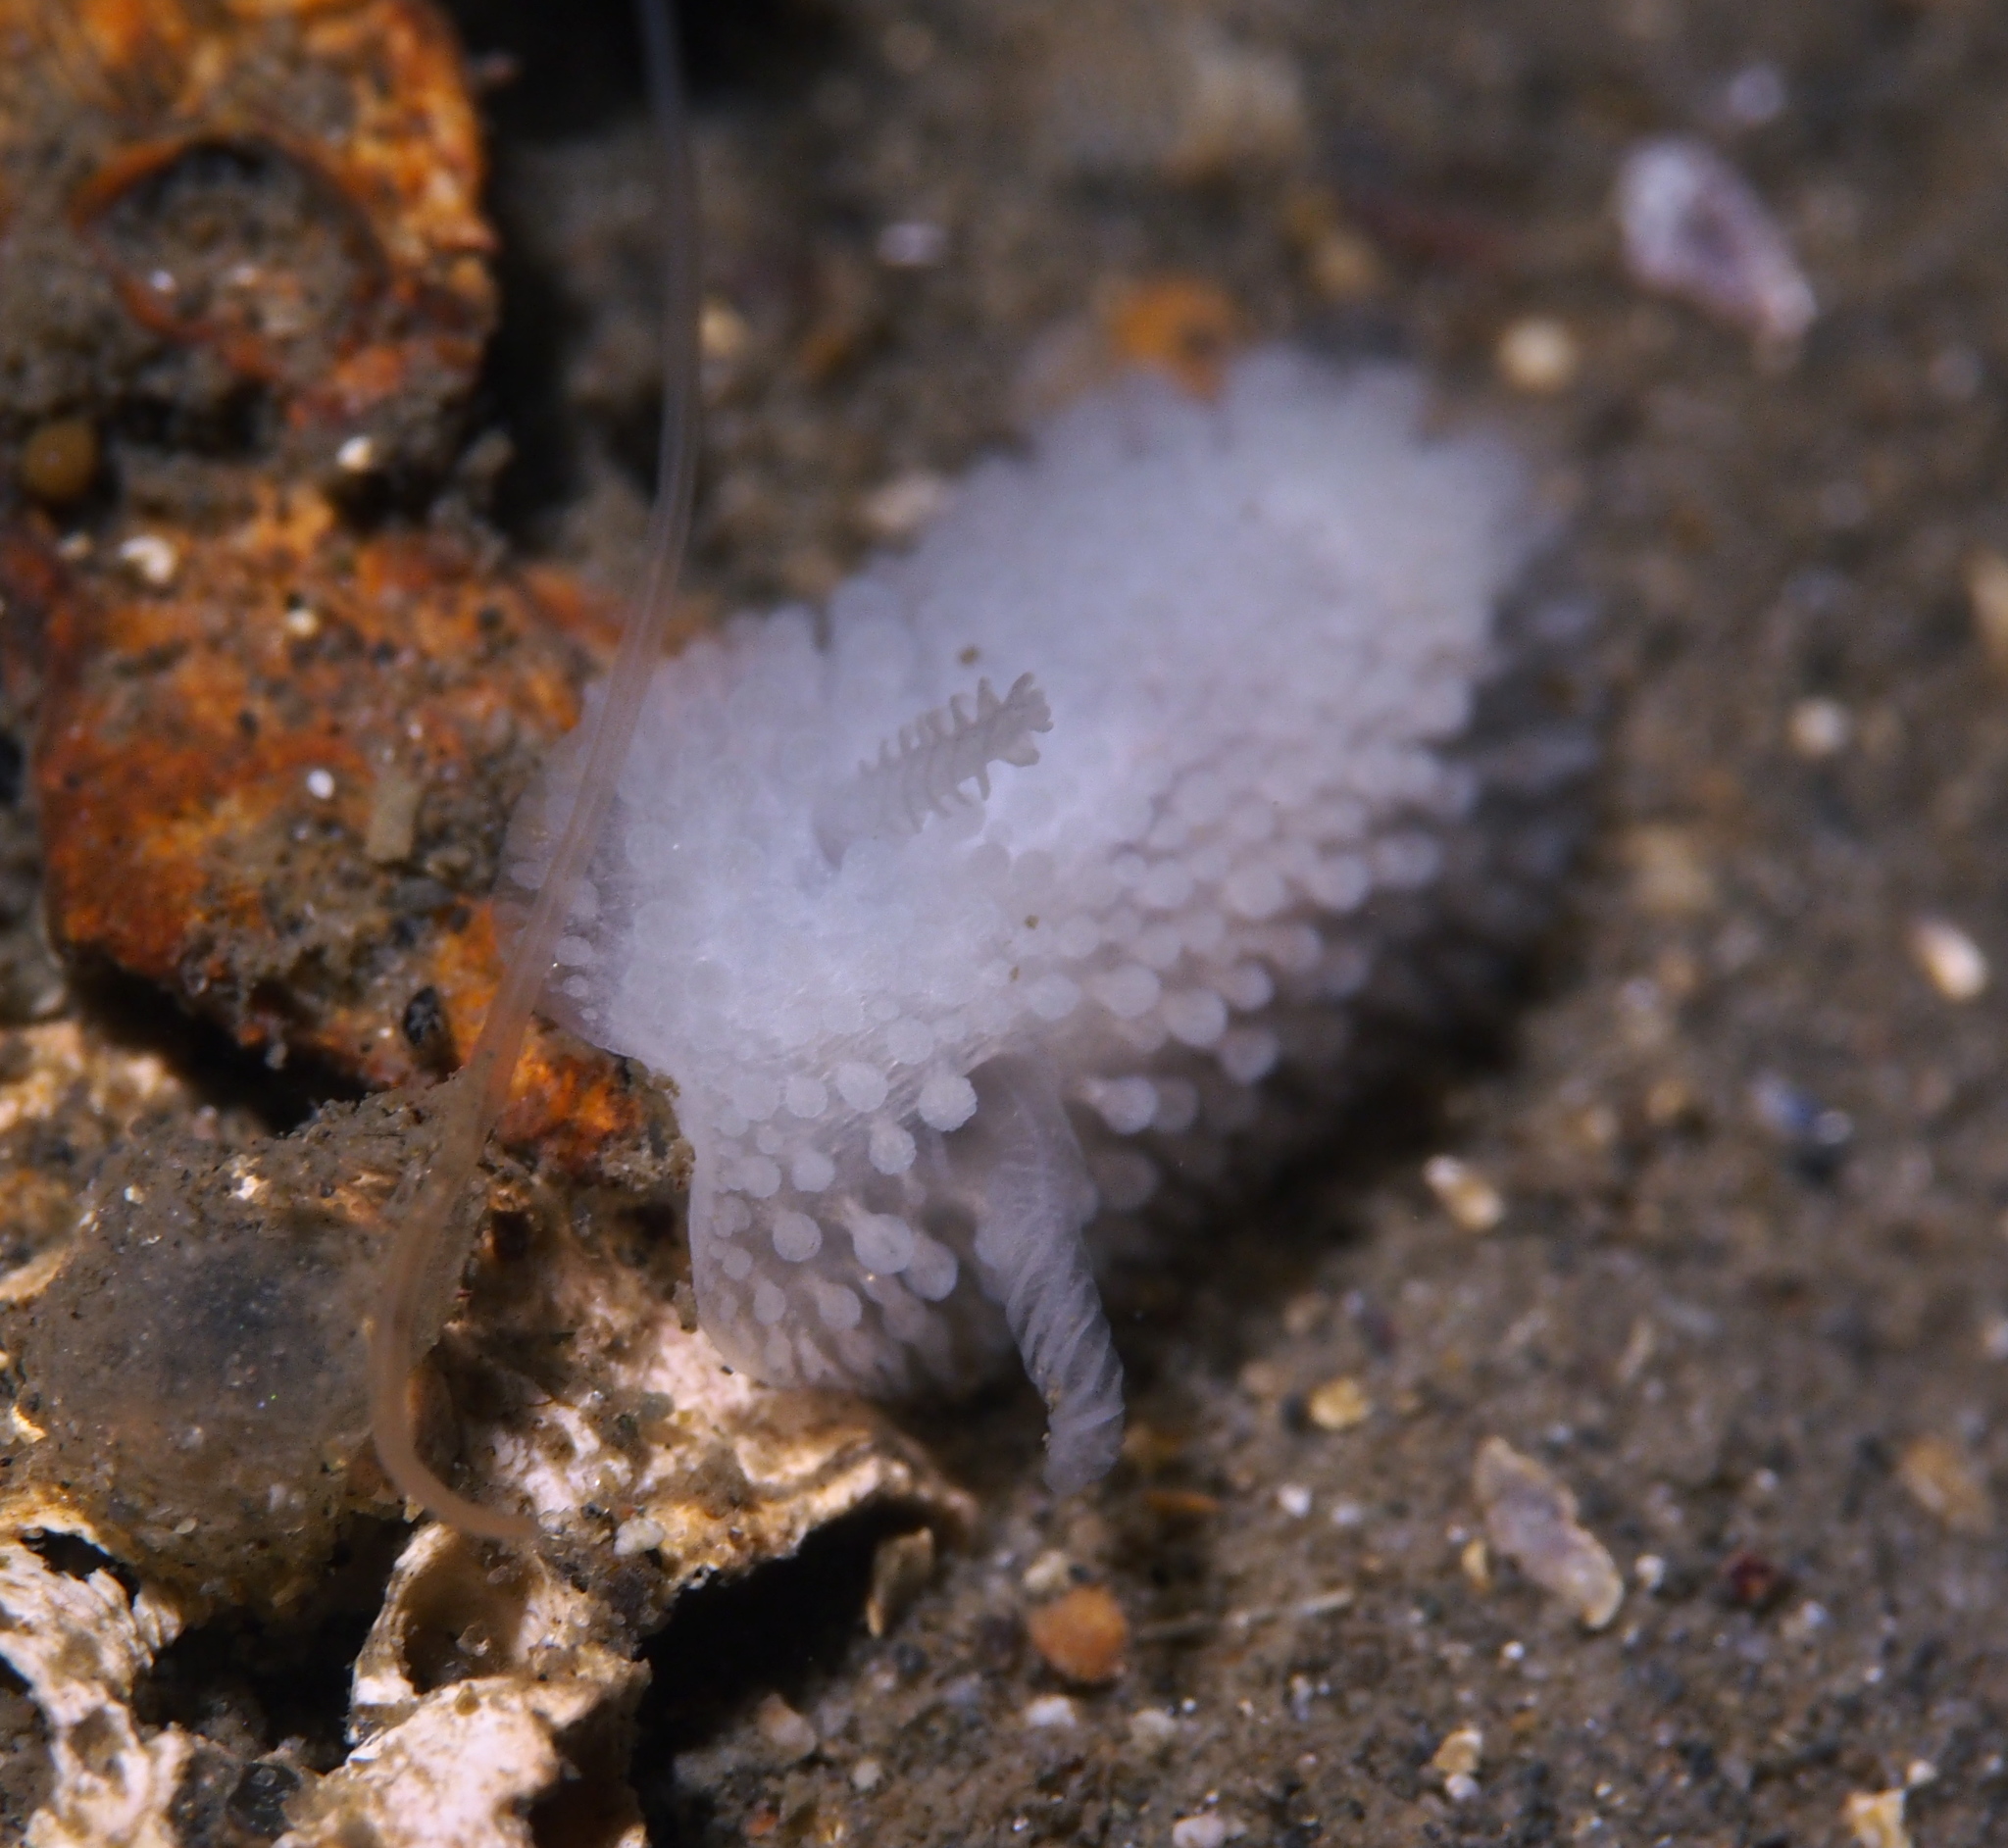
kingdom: Animalia
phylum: Mollusca
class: Gastropoda
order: Nudibranchia
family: Onchidorididae
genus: Onchidoris
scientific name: Onchidoris muricata
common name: Rough doris
